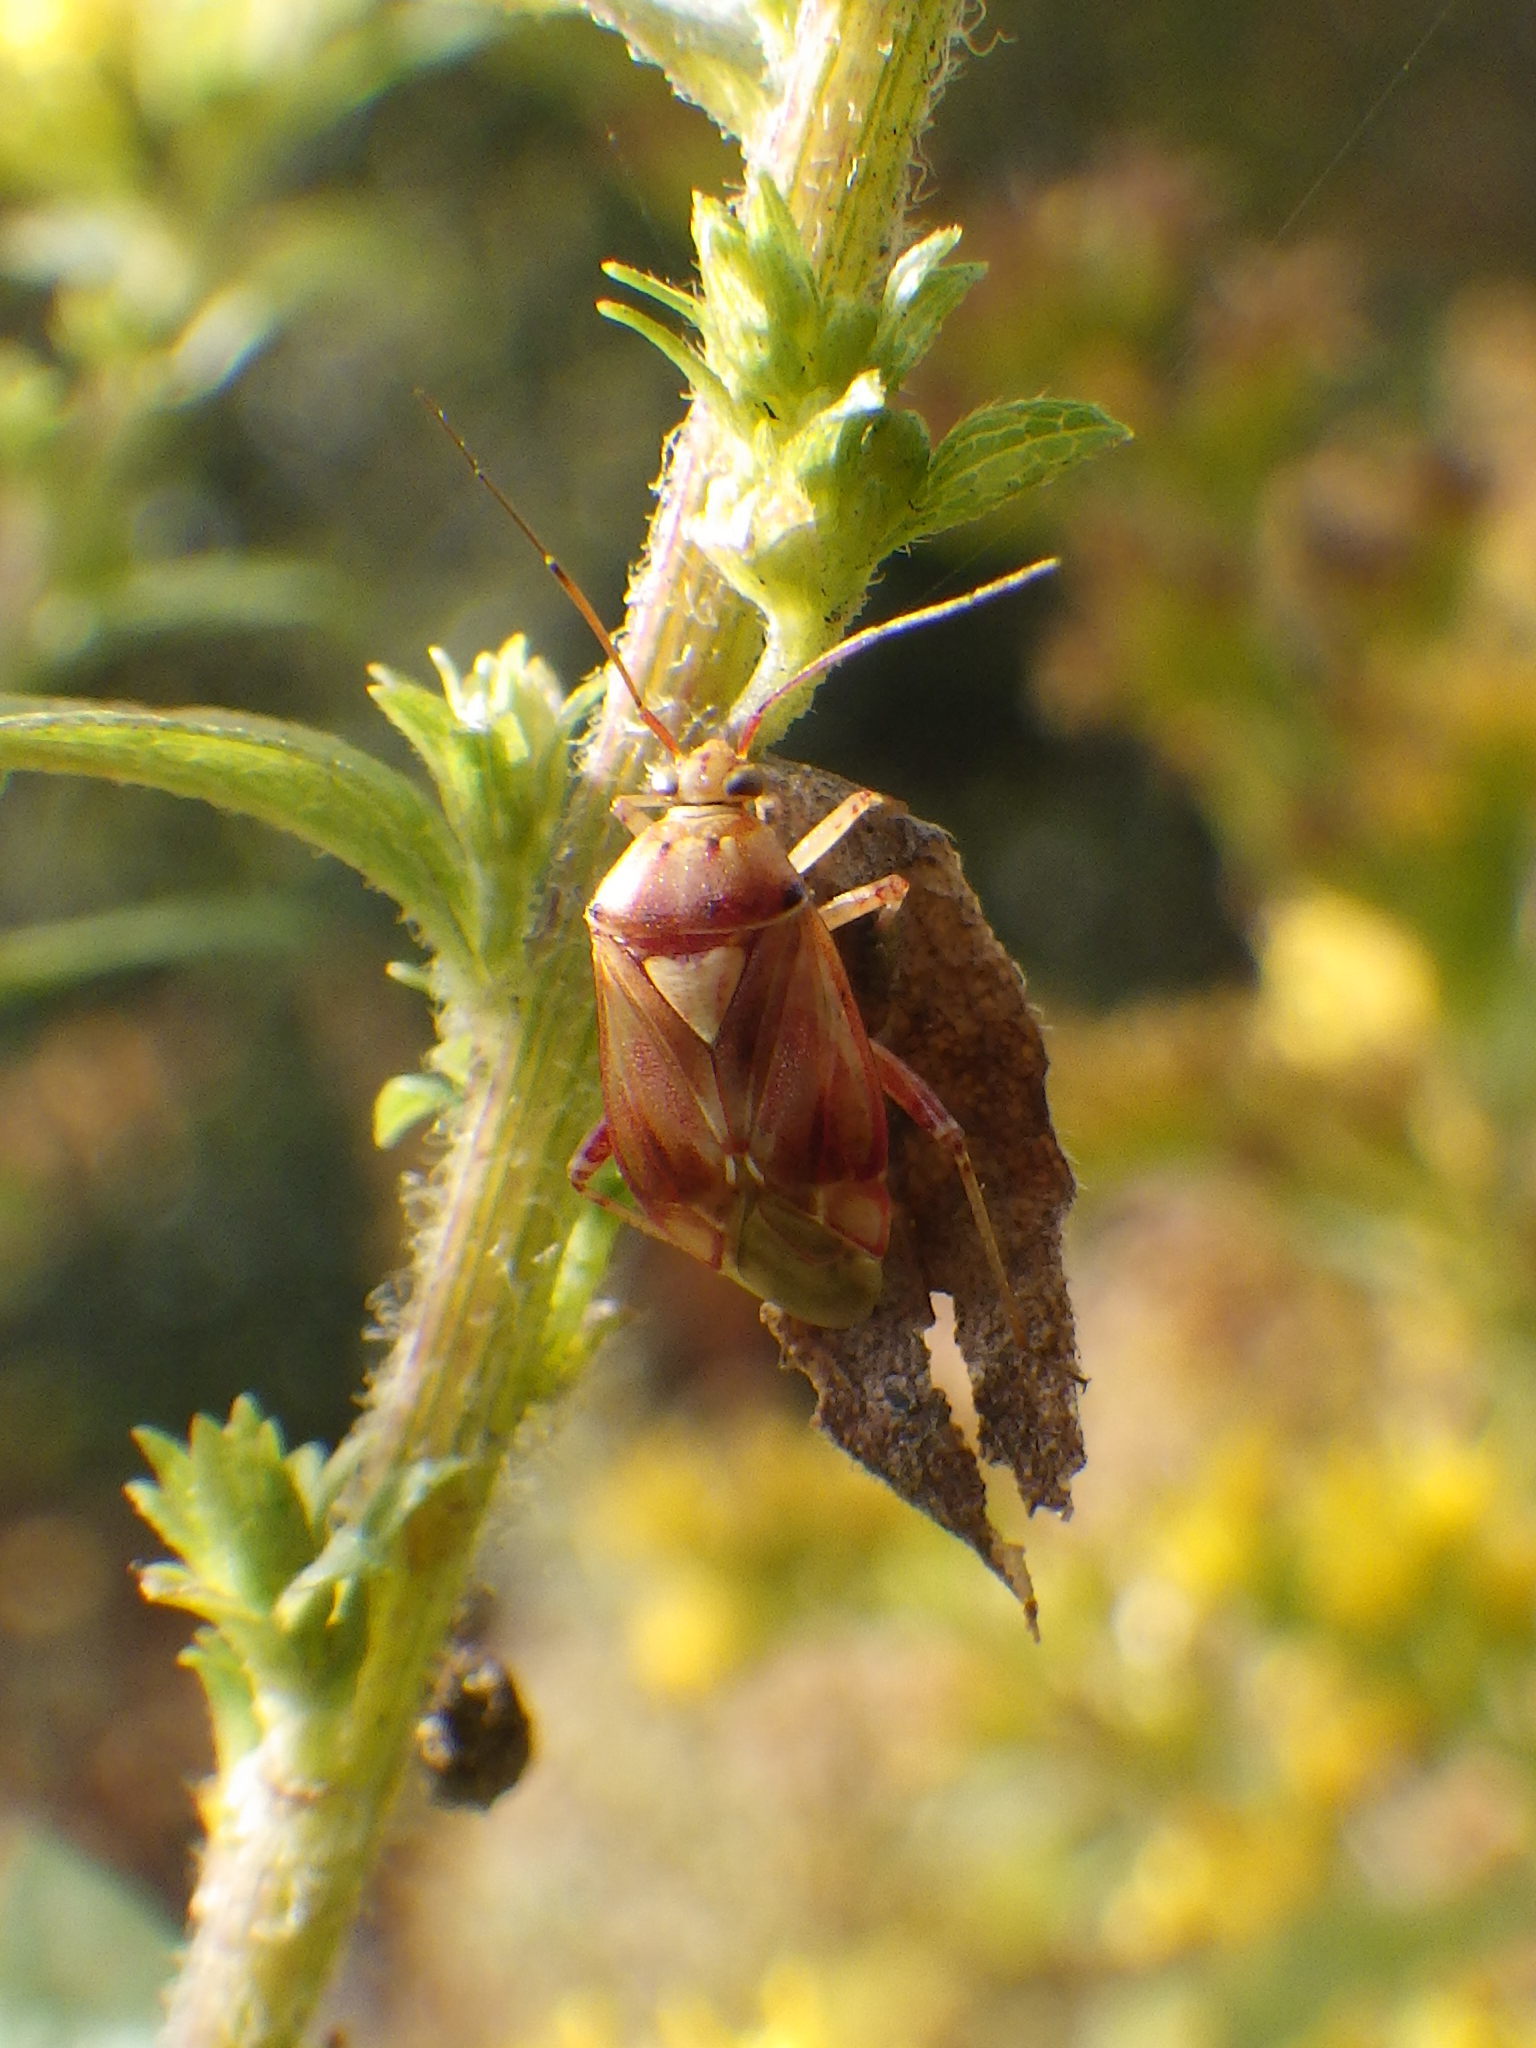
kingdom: Animalia
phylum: Arthropoda
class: Insecta
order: Hemiptera
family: Miridae
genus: Lygus
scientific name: Lygus rubroclarus
